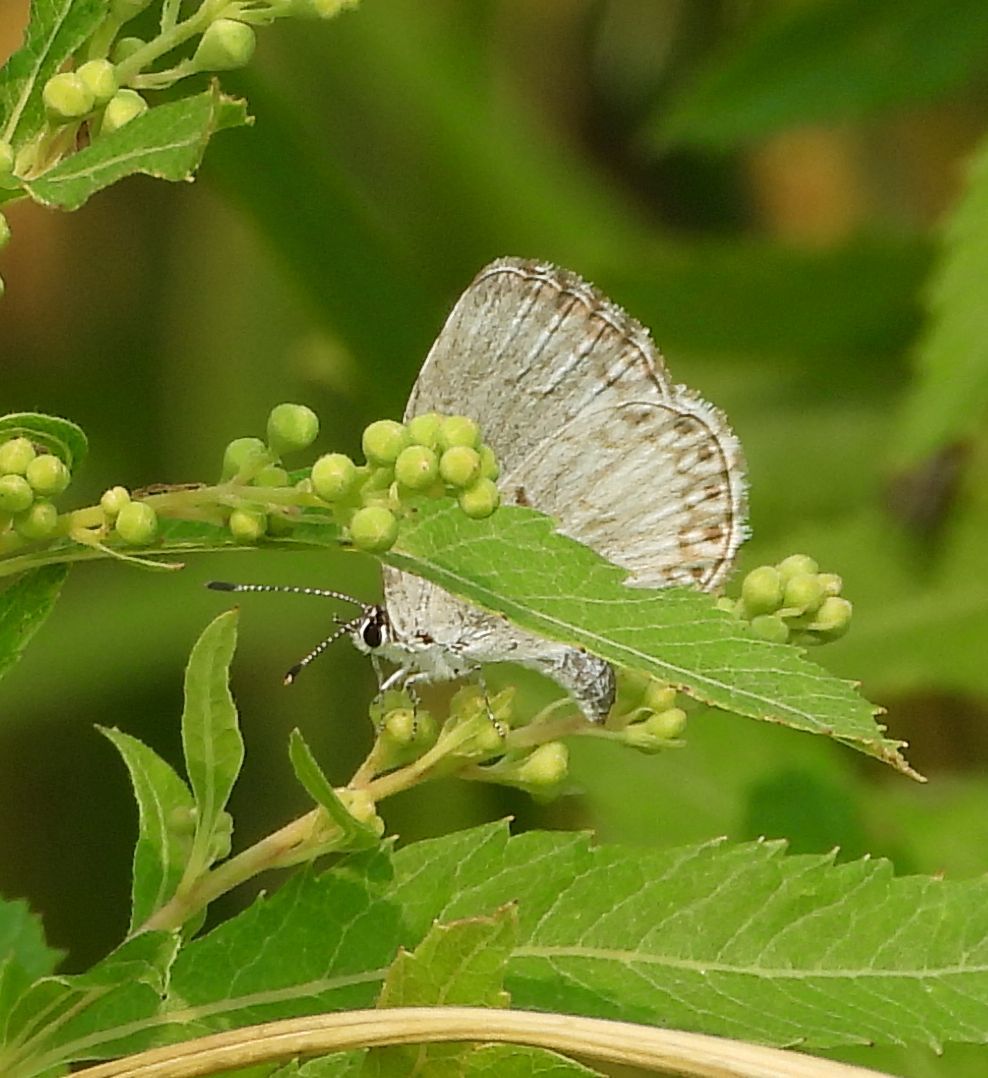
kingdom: Animalia
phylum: Arthropoda
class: Insecta
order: Lepidoptera
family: Lycaenidae
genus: Celastrina
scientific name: Celastrina lucia
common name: Lucia azure
